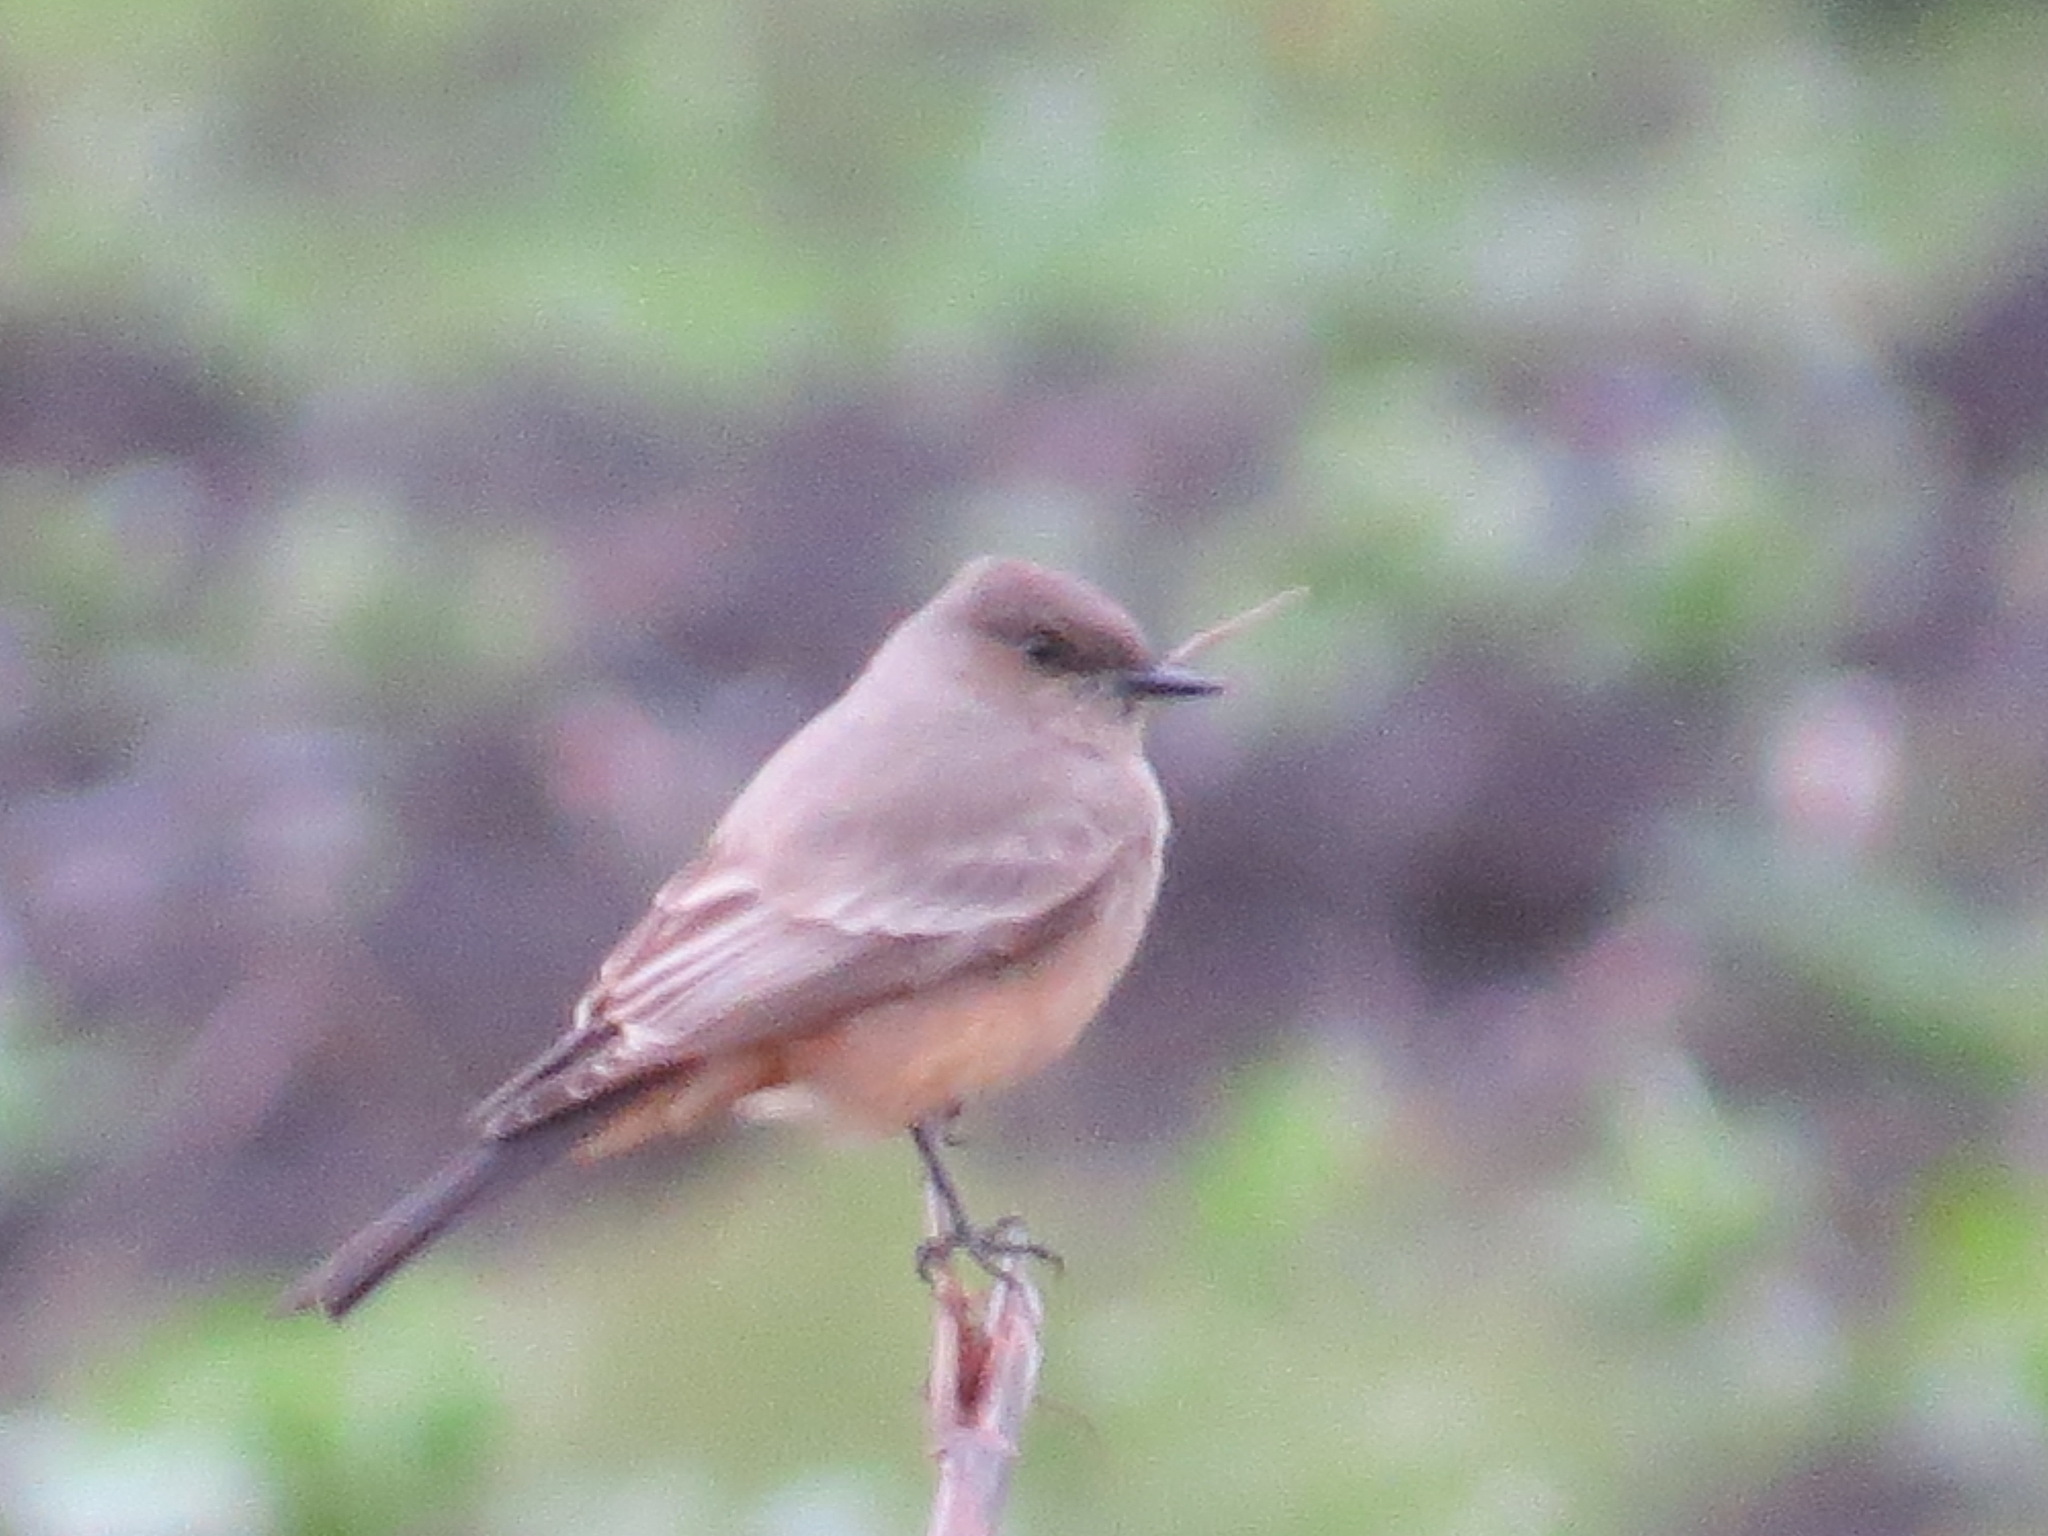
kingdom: Animalia
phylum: Chordata
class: Aves
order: Passeriformes
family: Tyrannidae
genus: Sayornis
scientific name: Sayornis saya
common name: Say's phoebe
